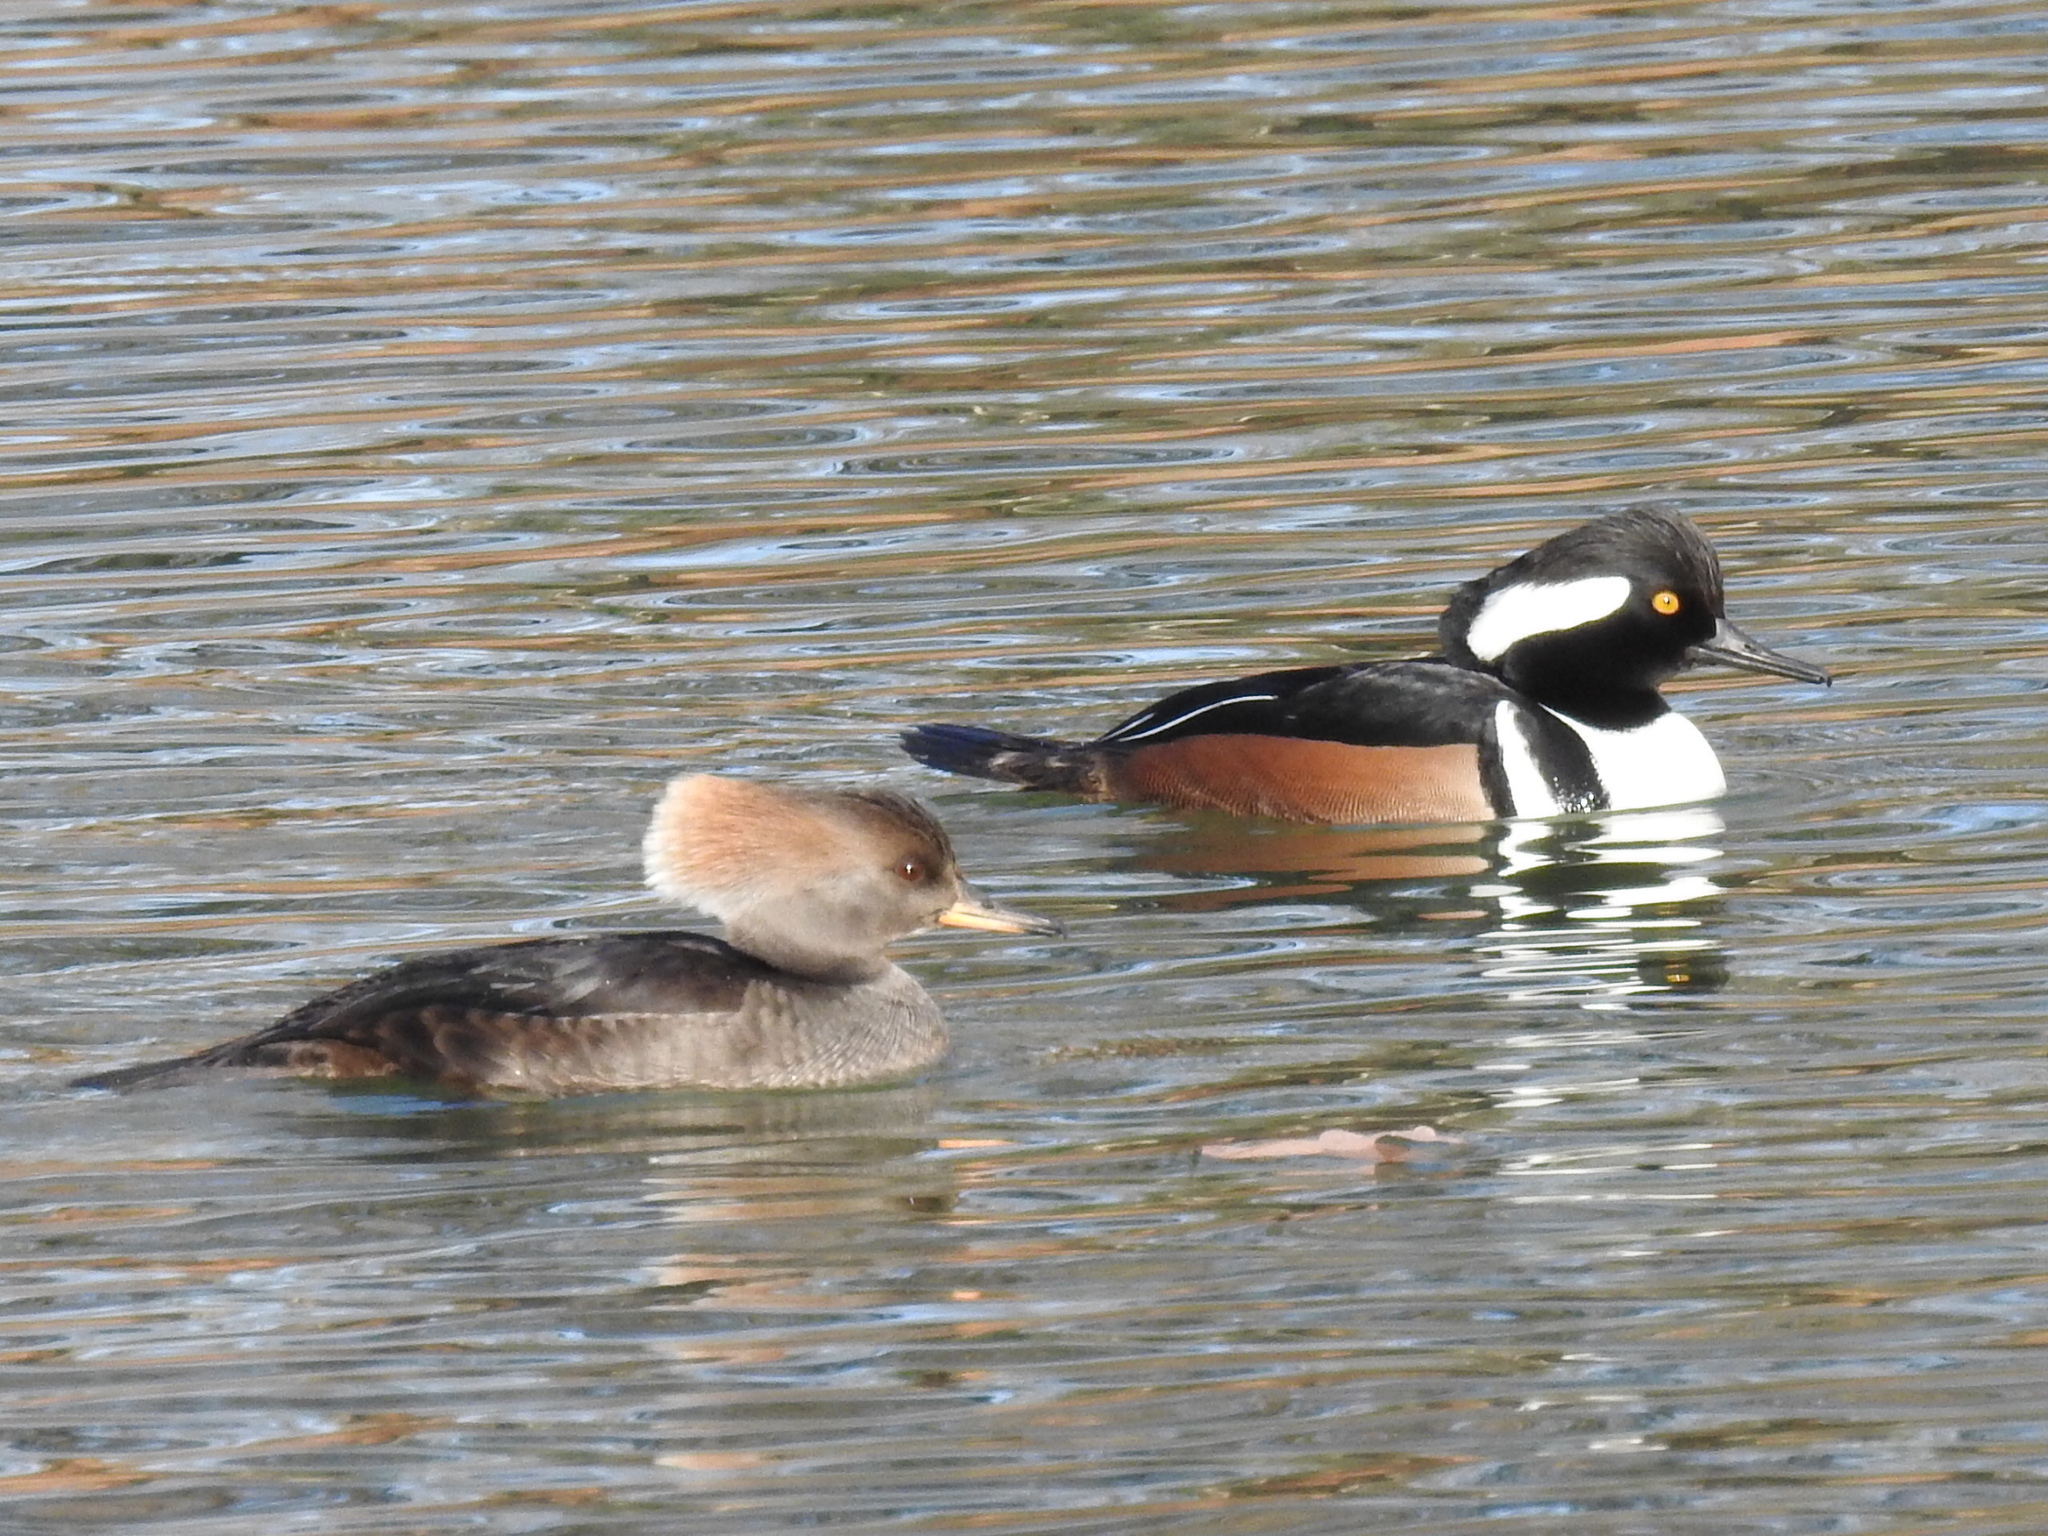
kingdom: Animalia
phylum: Chordata
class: Aves
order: Anseriformes
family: Anatidae
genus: Lophodytes
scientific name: Lophodytes cucullatus
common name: Hooded merganser
